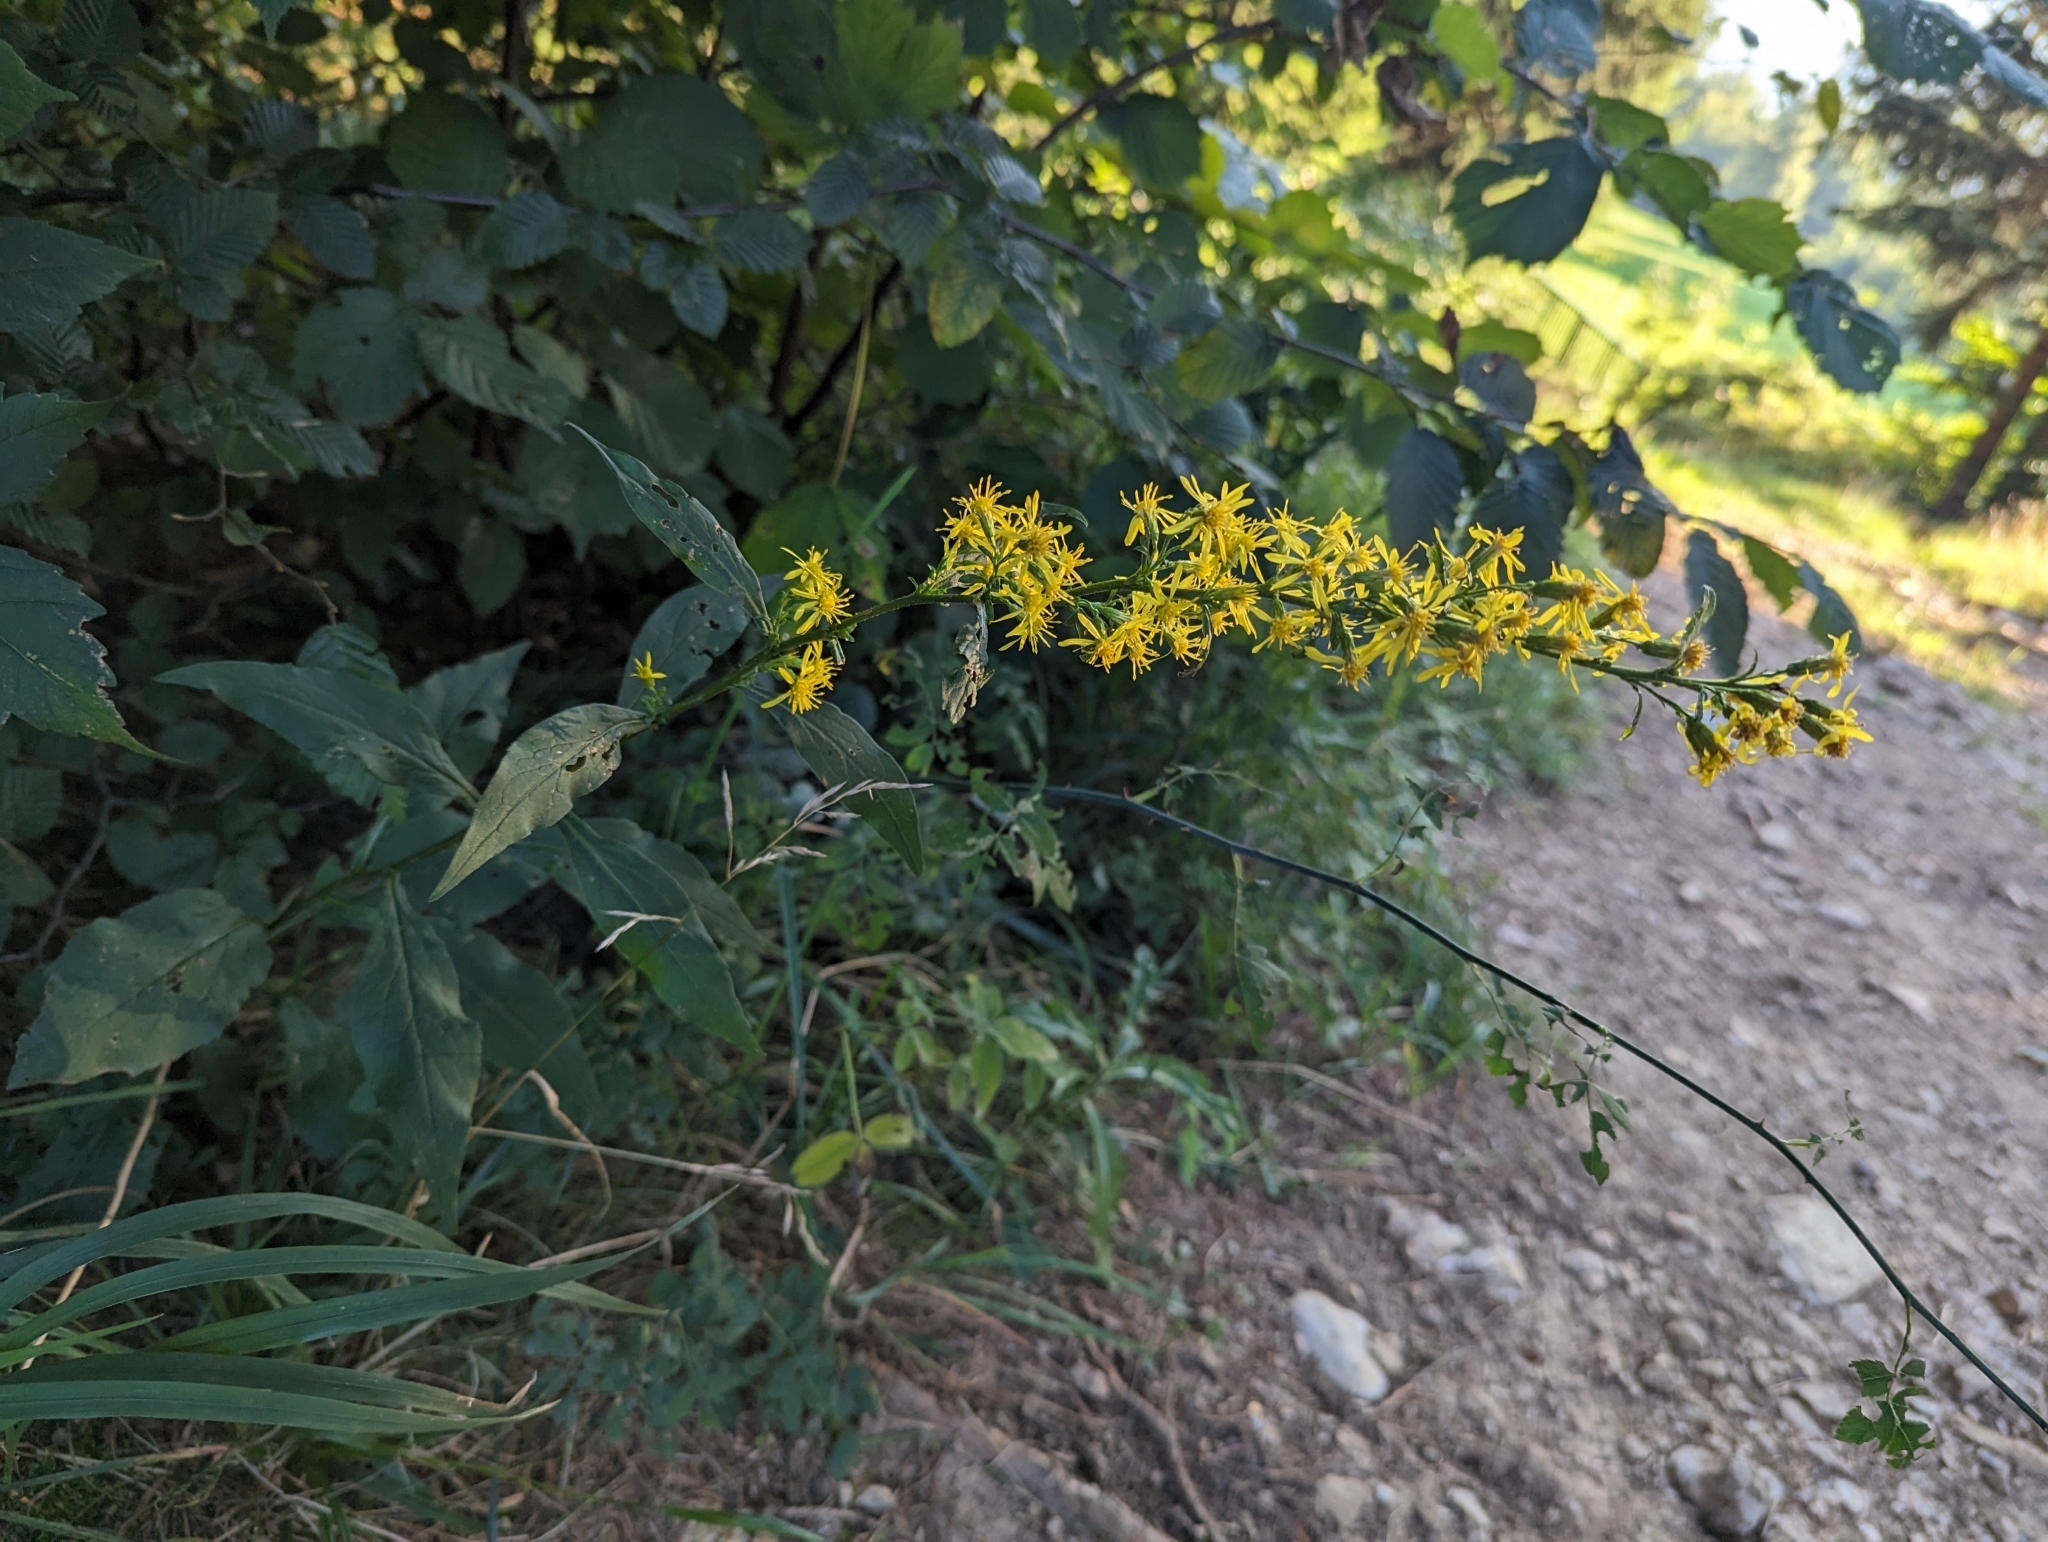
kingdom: Plantae
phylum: Tracheophyta
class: Magnoliopsida
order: Asterales
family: Asteraceae
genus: Solidago
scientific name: Solidago virgaurea
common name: Goldenrod
